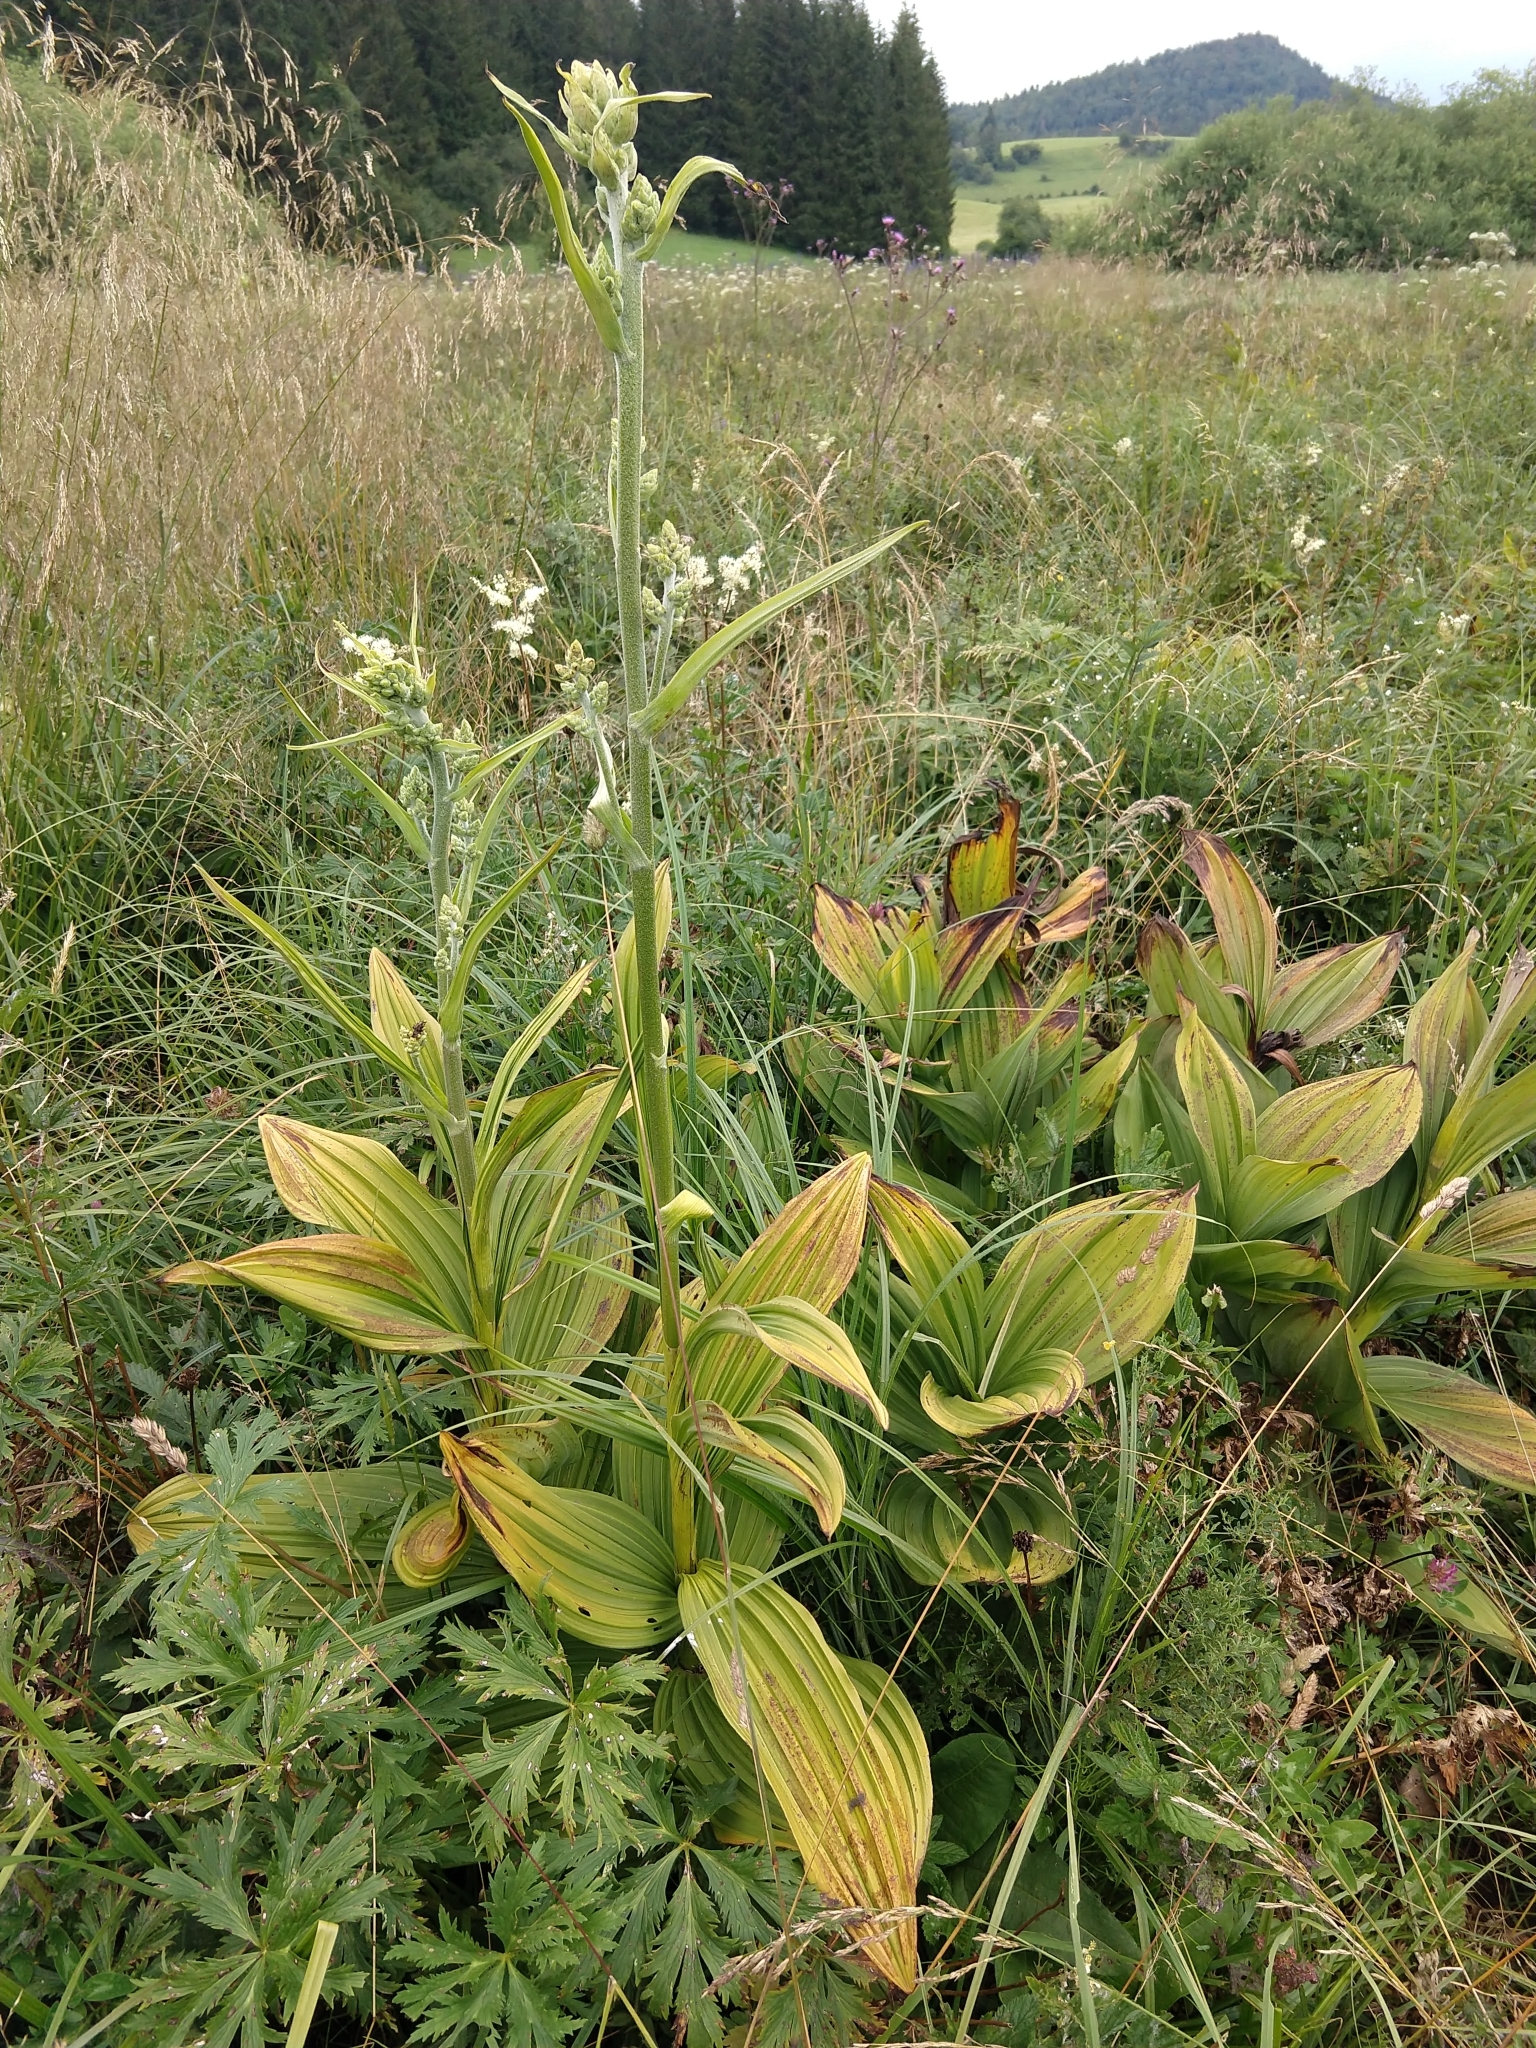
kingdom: Plantae
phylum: Tracheophyta
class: Liliopsida
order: Liliales
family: Melanthiaceae
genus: Veratrum
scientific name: Veratrum album
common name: White veratrum
